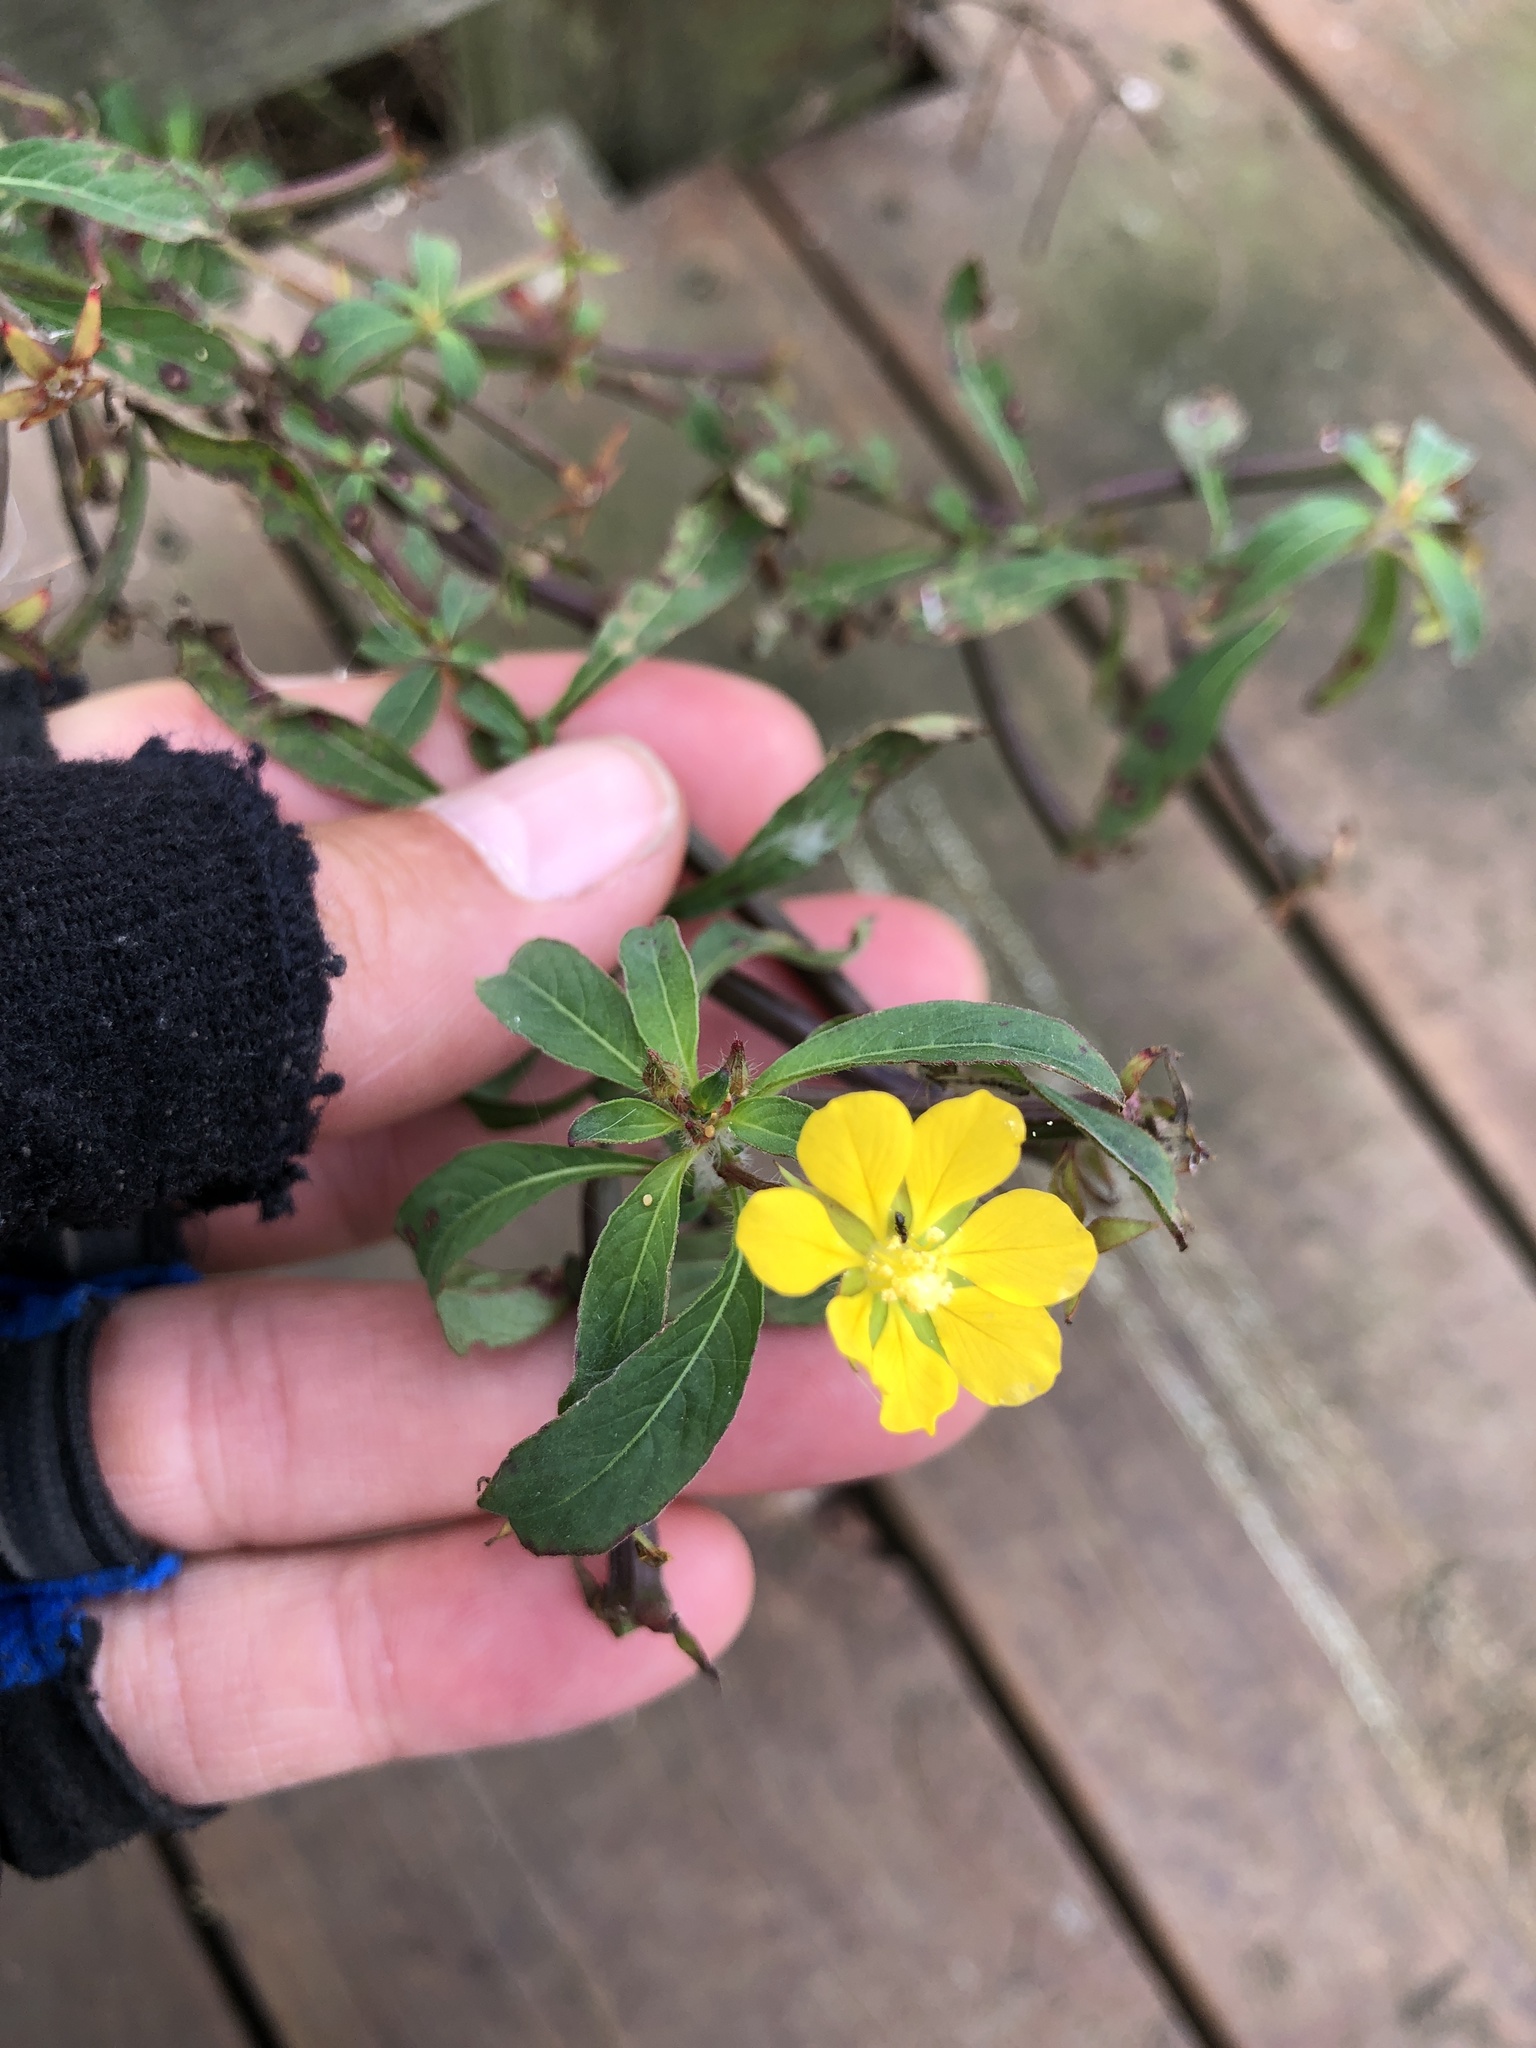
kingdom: Plantae
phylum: Tracheophyta
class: Magnoliopsida
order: Myrtales
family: Onagraceae
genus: Ludwigia
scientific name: Ludwigia leptocarpa
